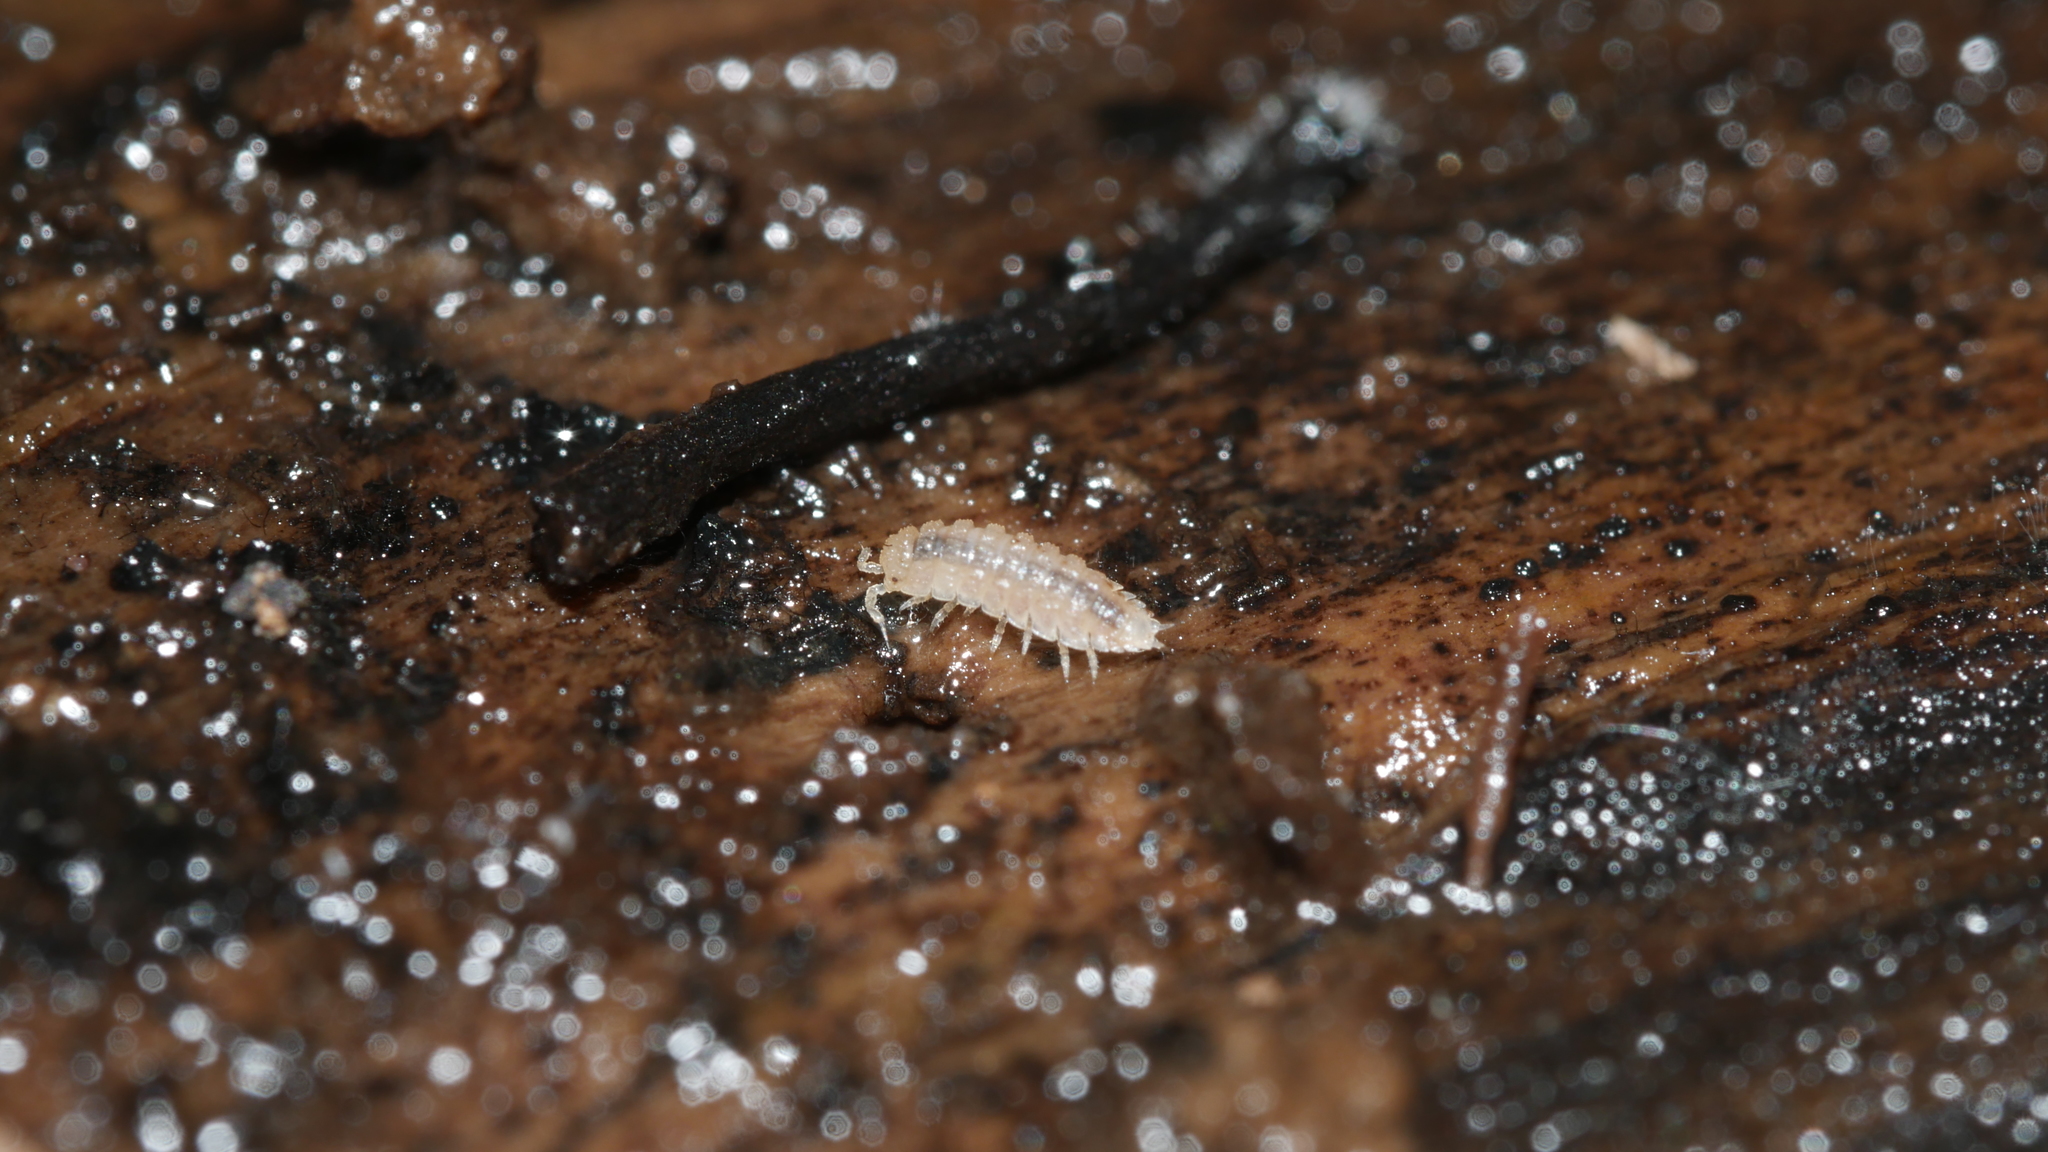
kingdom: Animalia
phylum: Arthropoda
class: Malacostraca
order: Isopoda
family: Trichoniscidae
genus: Haplophthalmus
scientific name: Haplophthalmus danicus
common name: Pillbug
